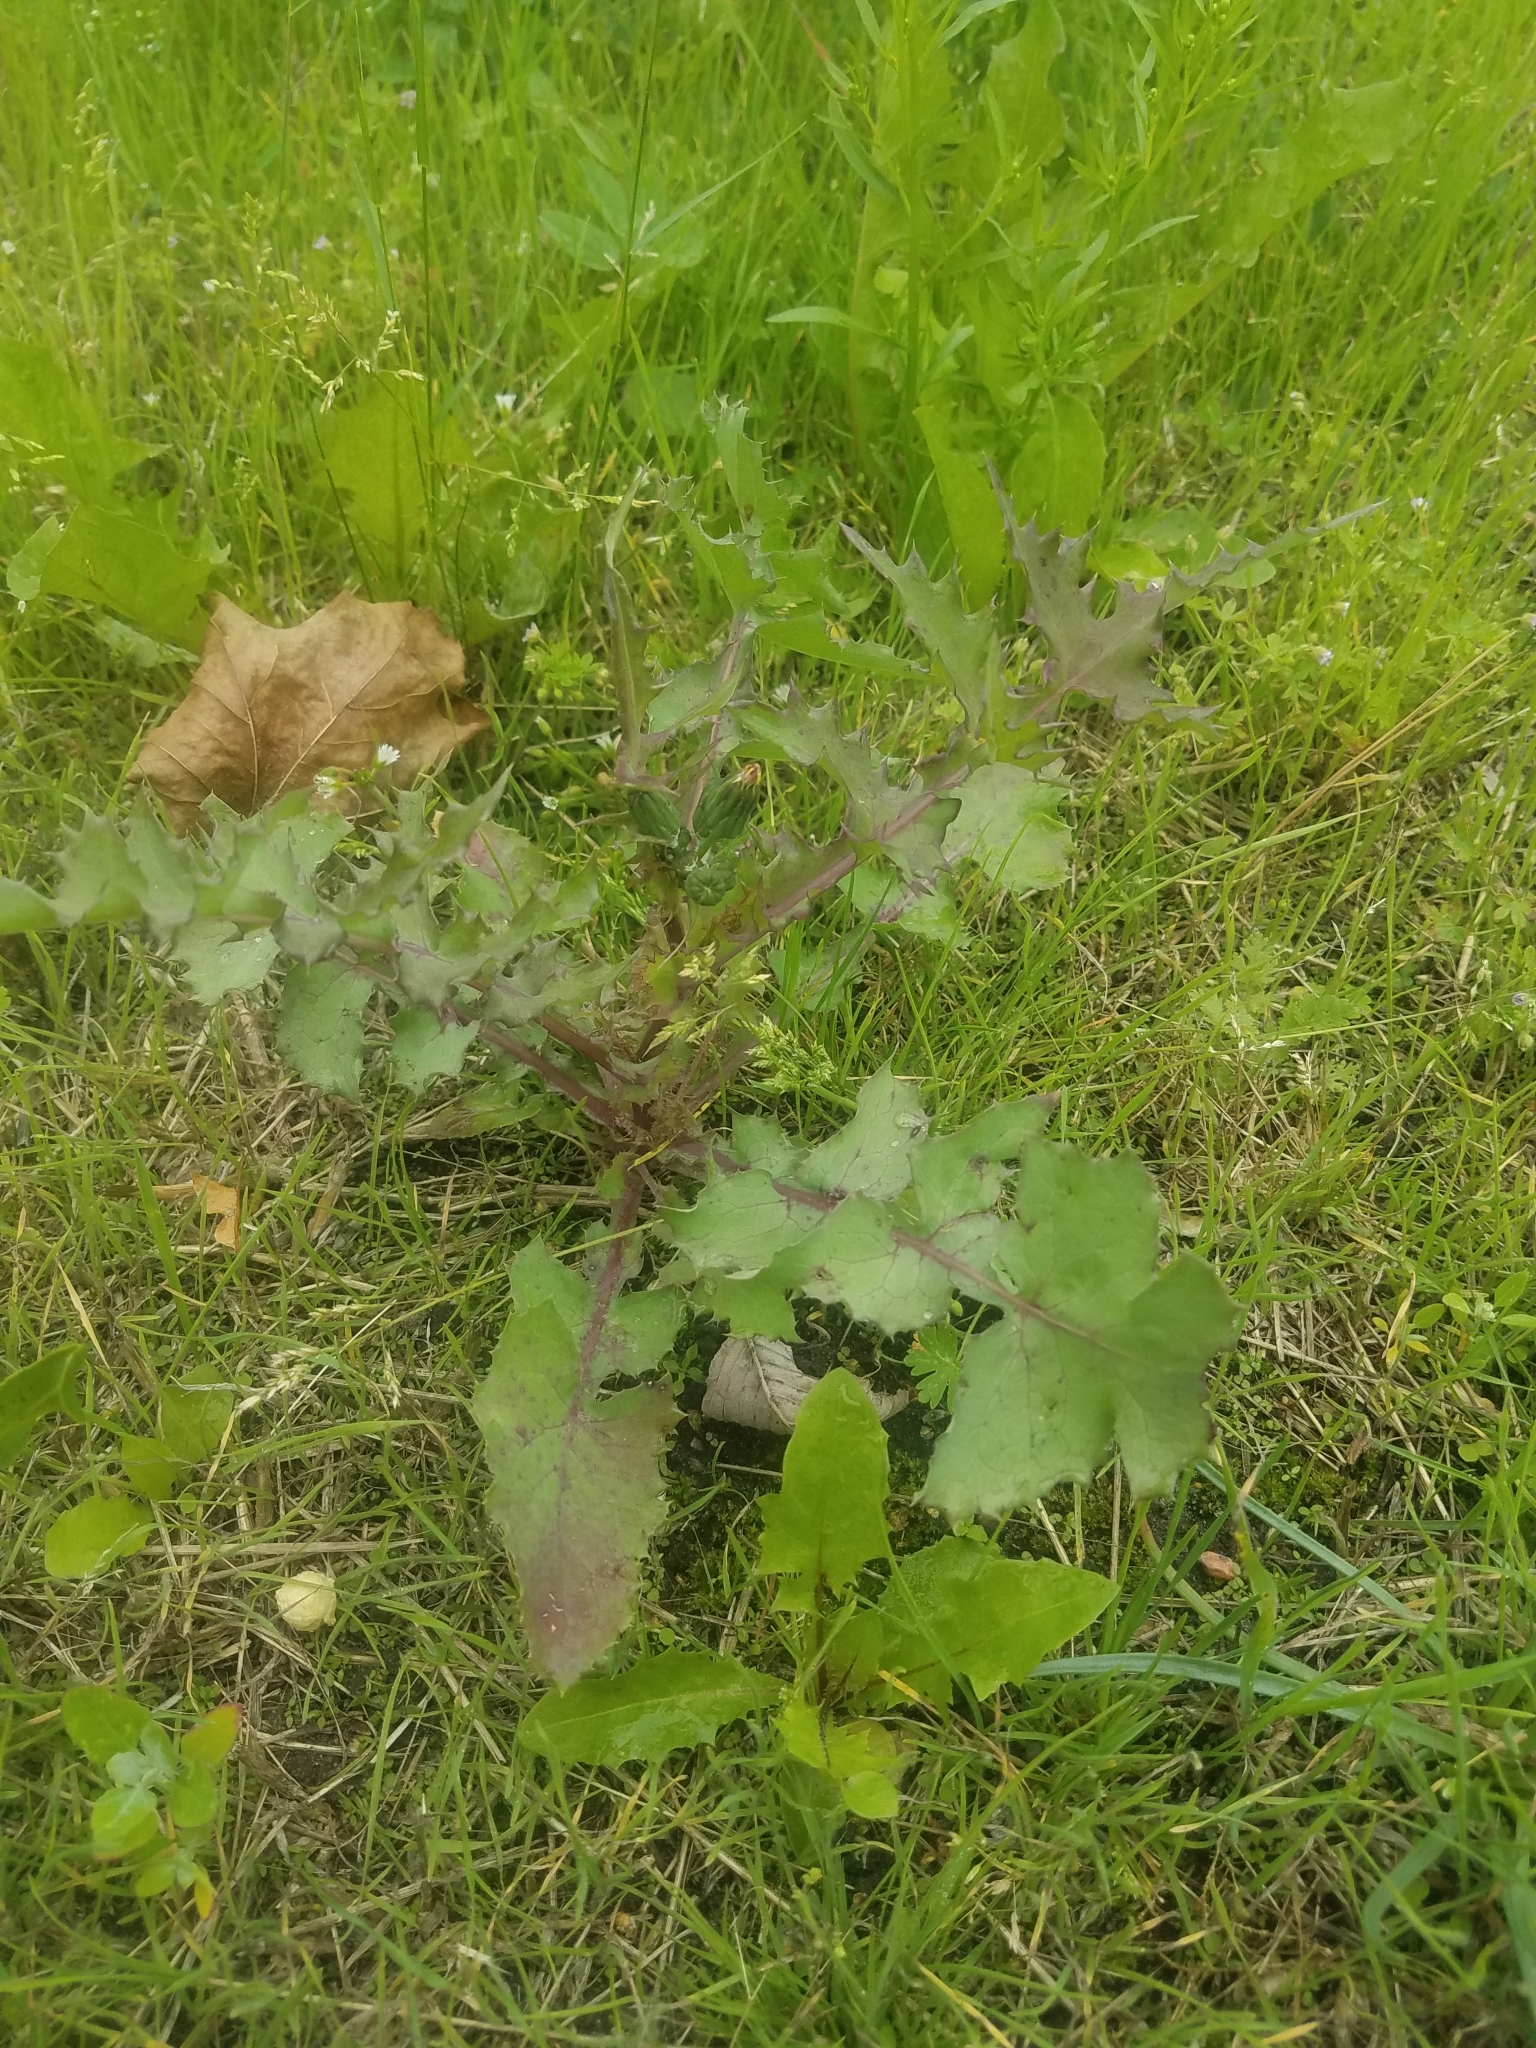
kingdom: Plantae
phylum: Tracheophyta
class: Magnoliopsida
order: Asterales
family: Asteraceae
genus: Sonchus
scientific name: Sonchus oleraceus
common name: Common sowthistle
